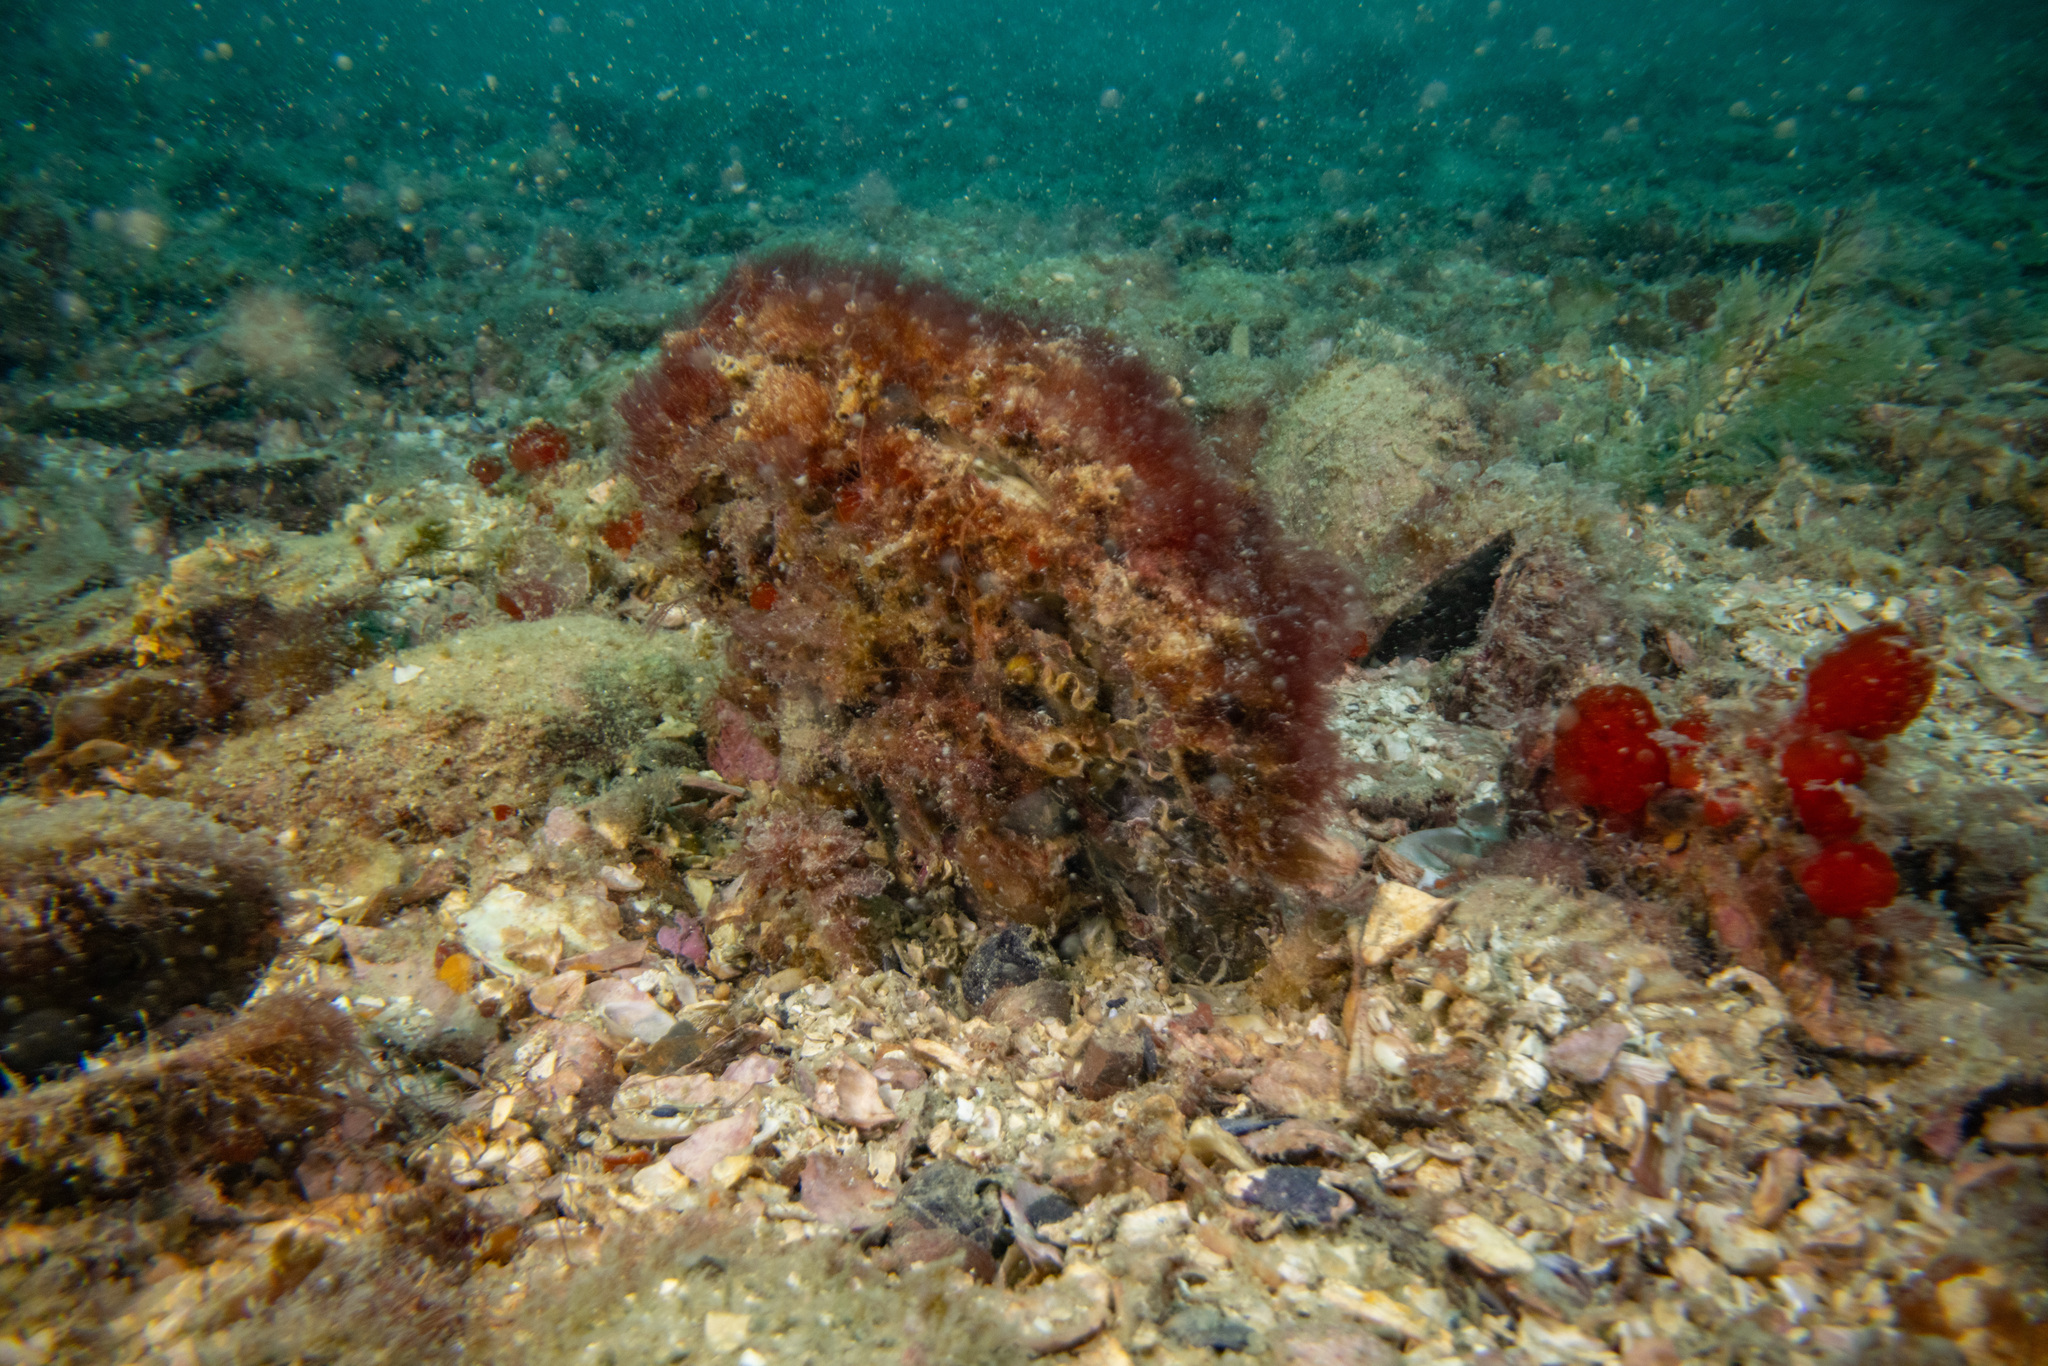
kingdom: Animalia
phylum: Mollusca
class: Bivalvia
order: Ostreida
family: Pinnidae
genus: Atrina
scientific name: Atrina zelandica
